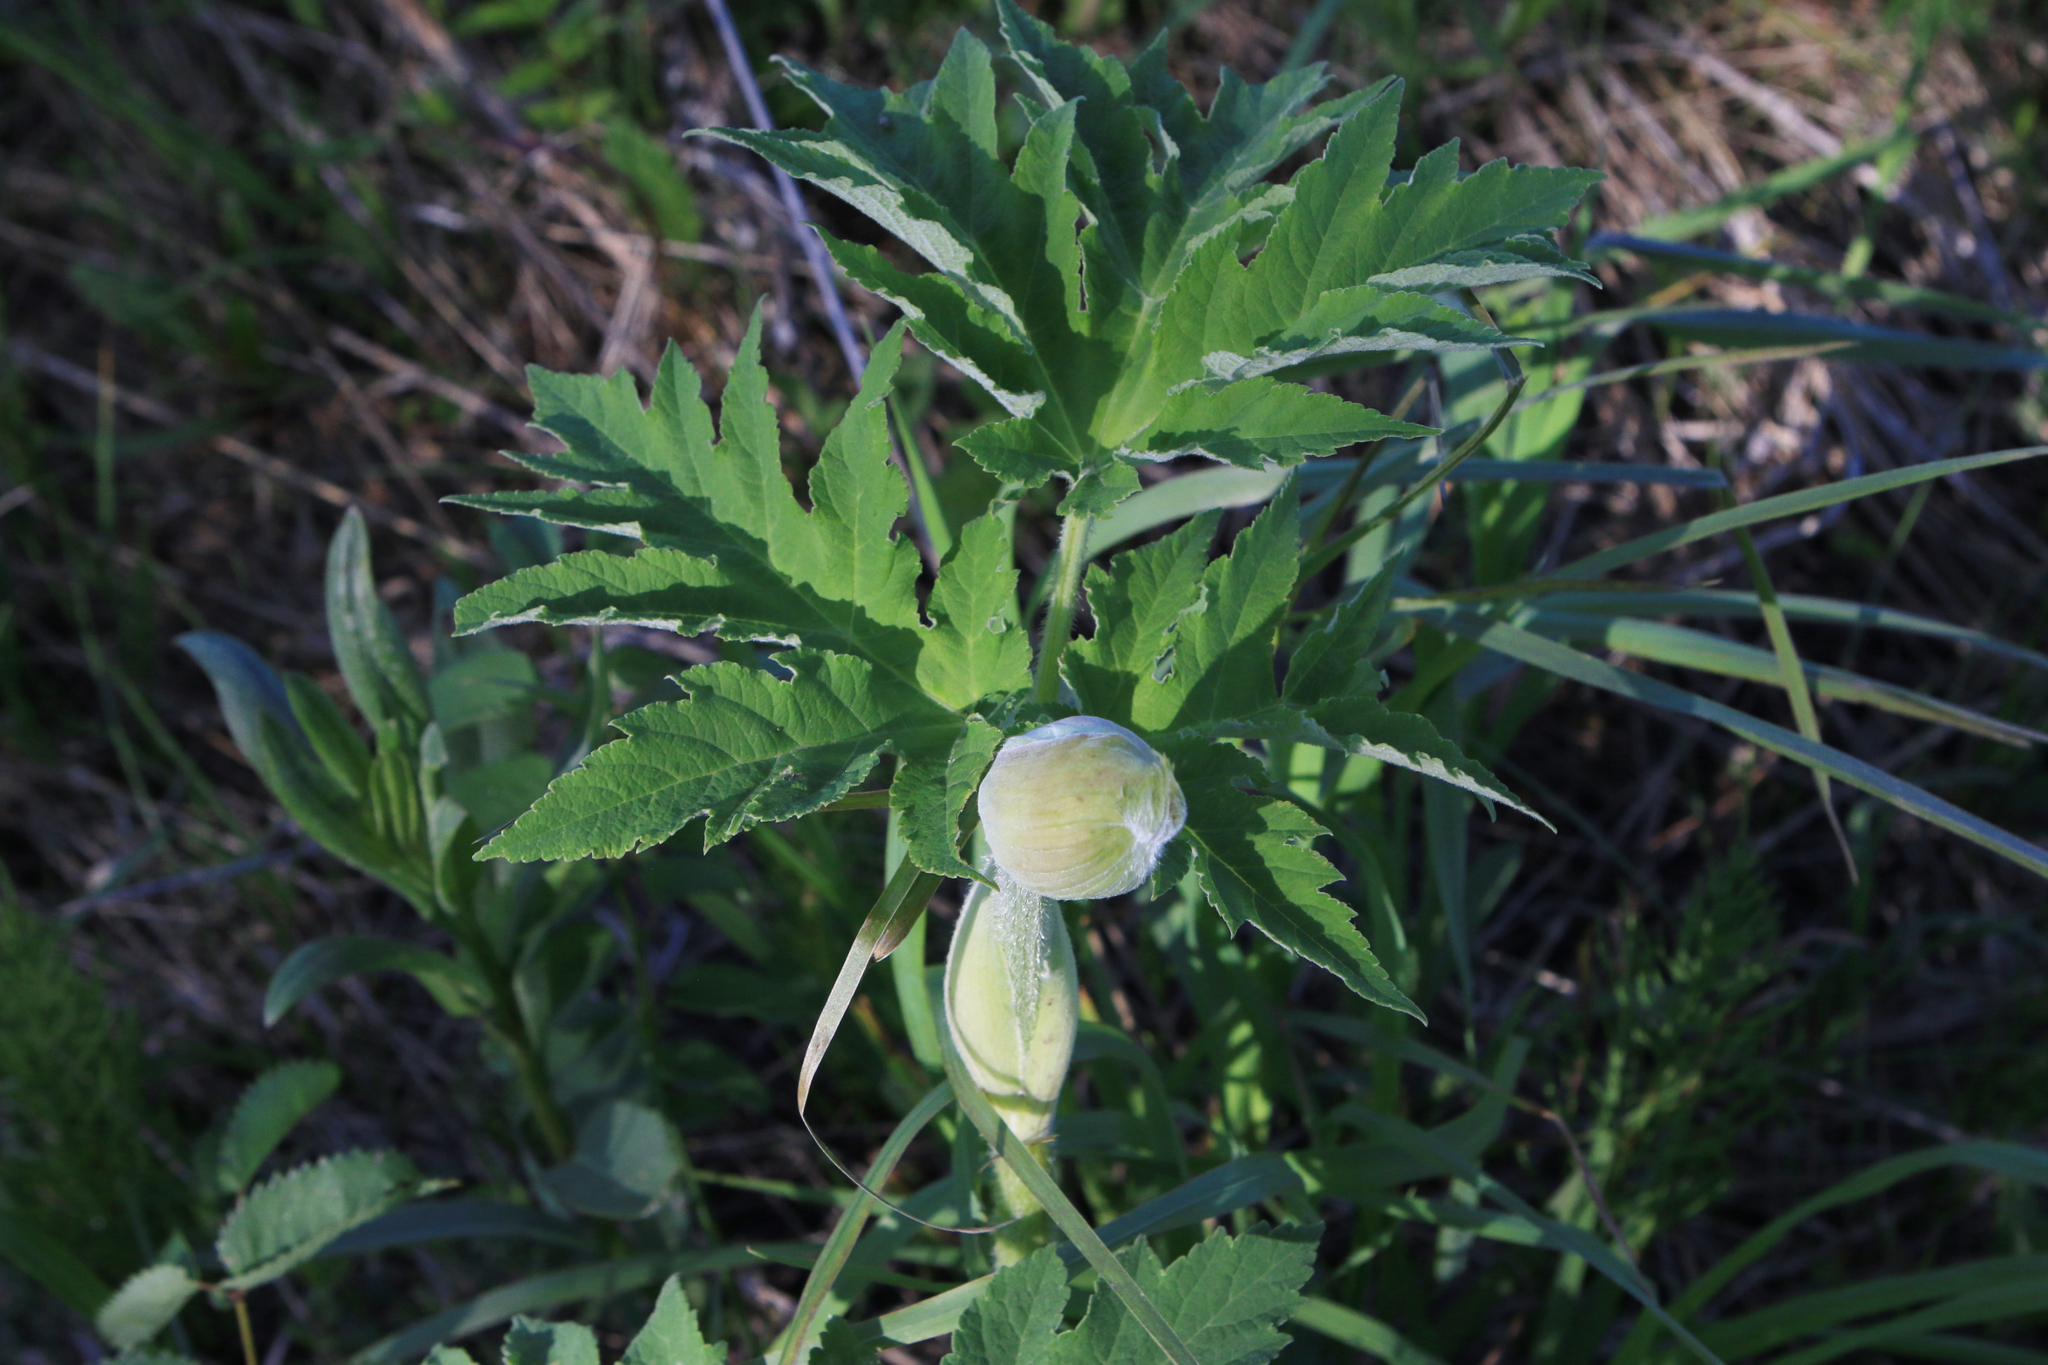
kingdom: Plantae
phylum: Tracheophyta
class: Magnoliopsida
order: Apiales
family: Apiaceae
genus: Heracleum
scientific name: Heracleum dissectum
